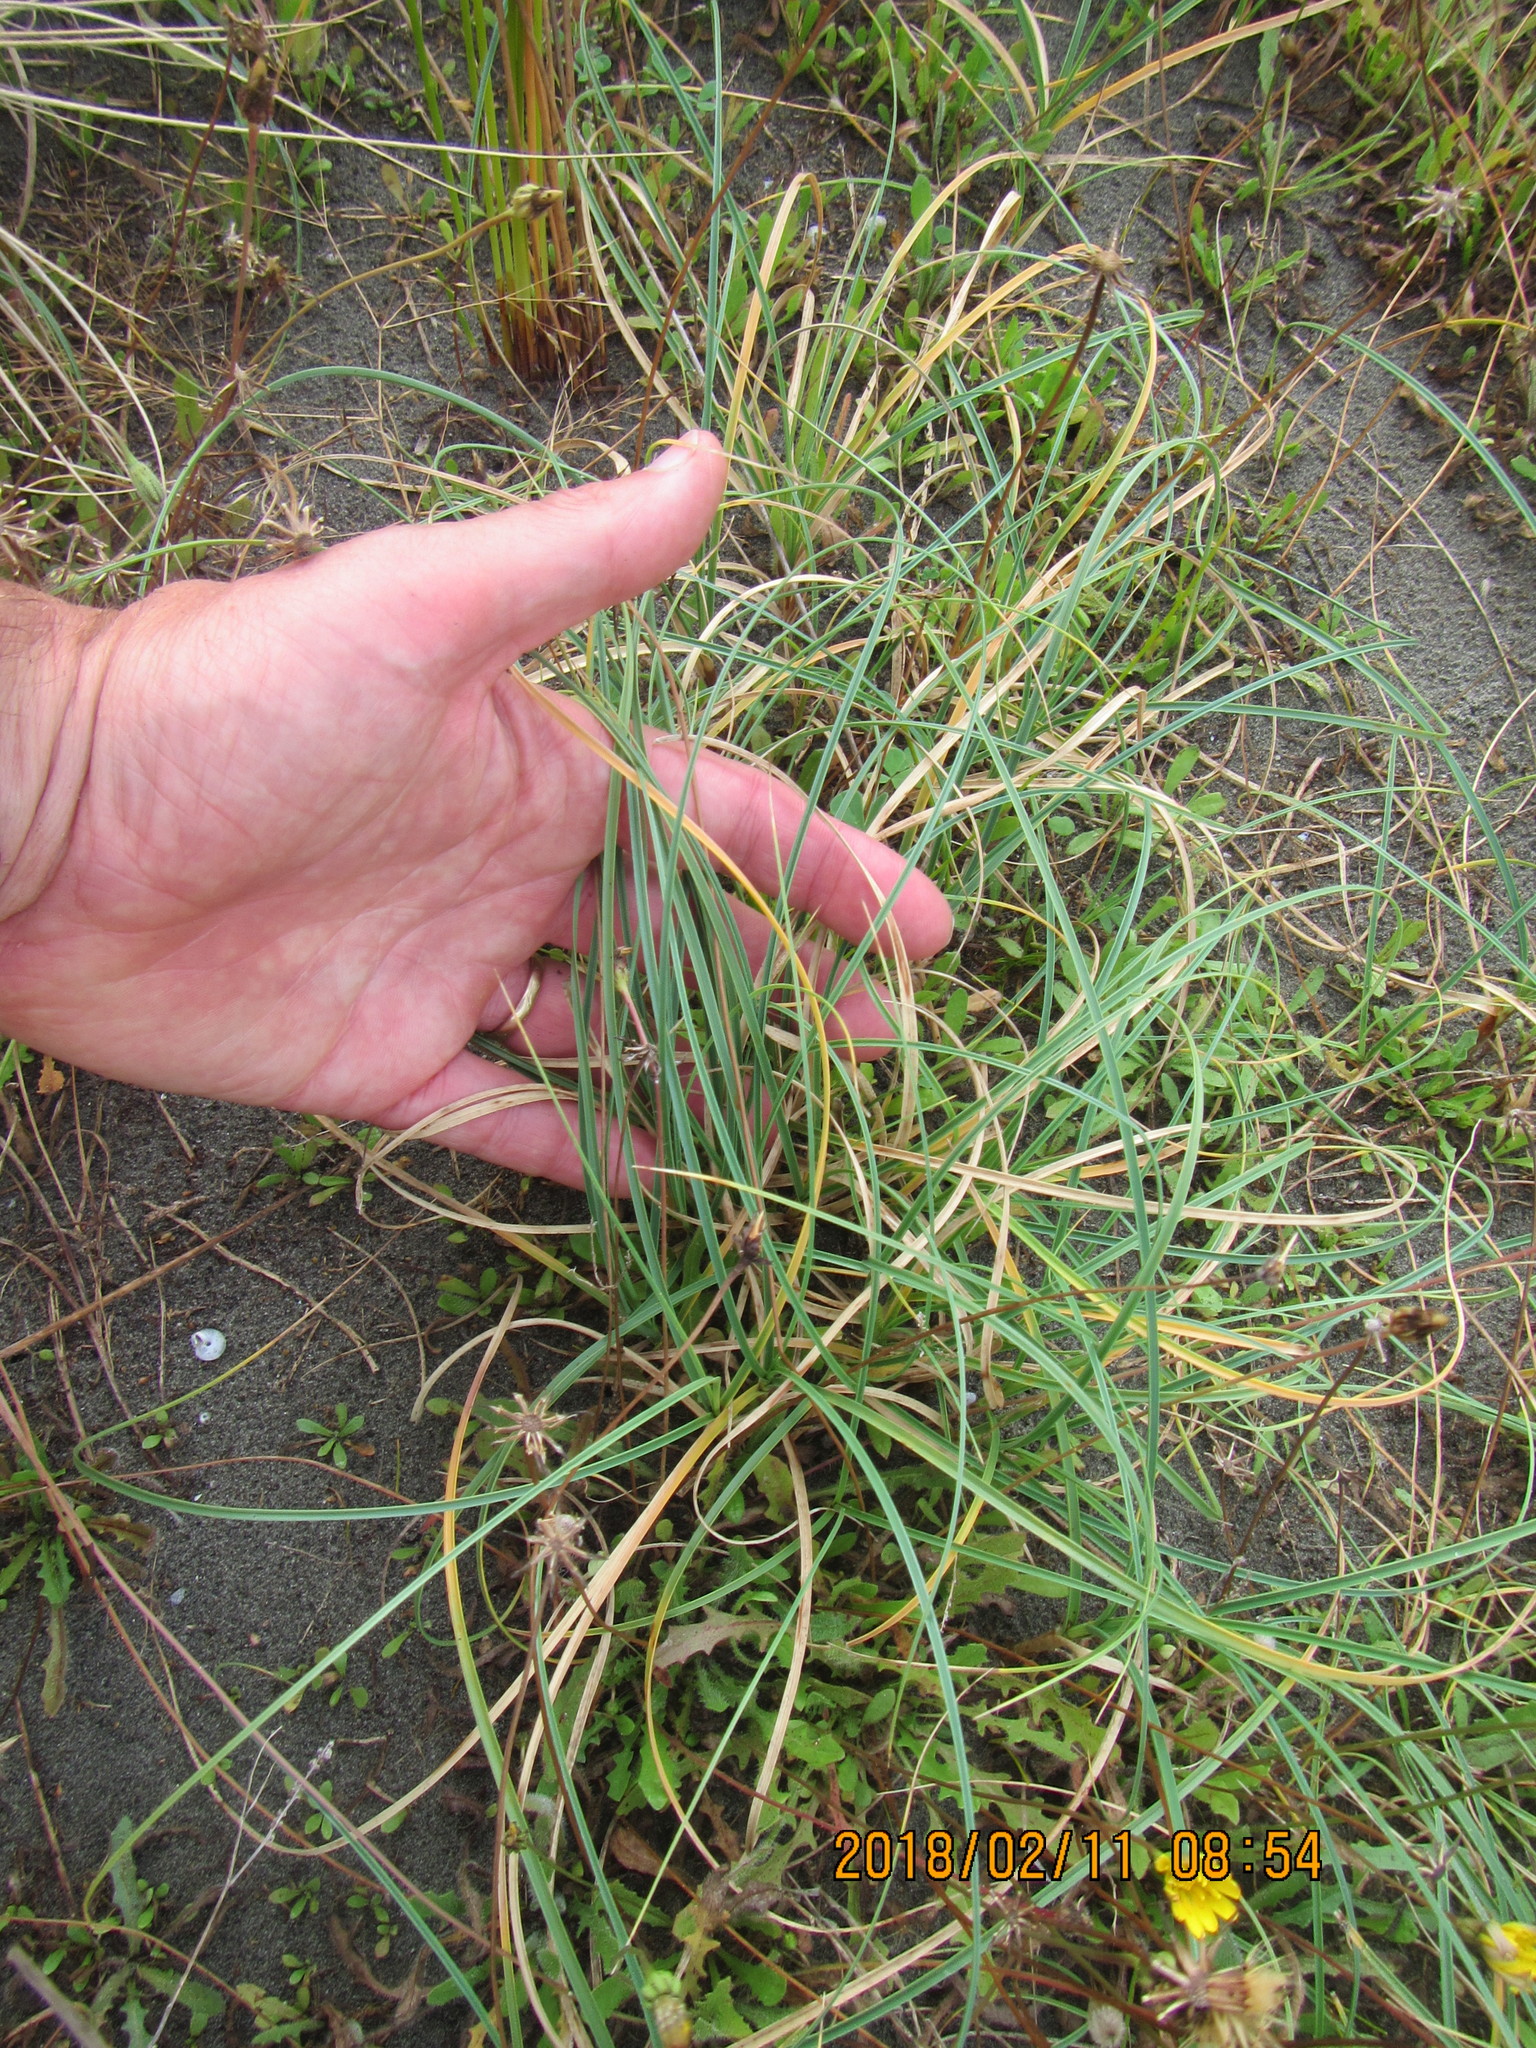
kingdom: Plantae
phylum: Tracheophyta
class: Liliopsida
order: Poales
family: Cyperaceae
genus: Carex
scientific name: Carex pumila
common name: Dwarf sedge
